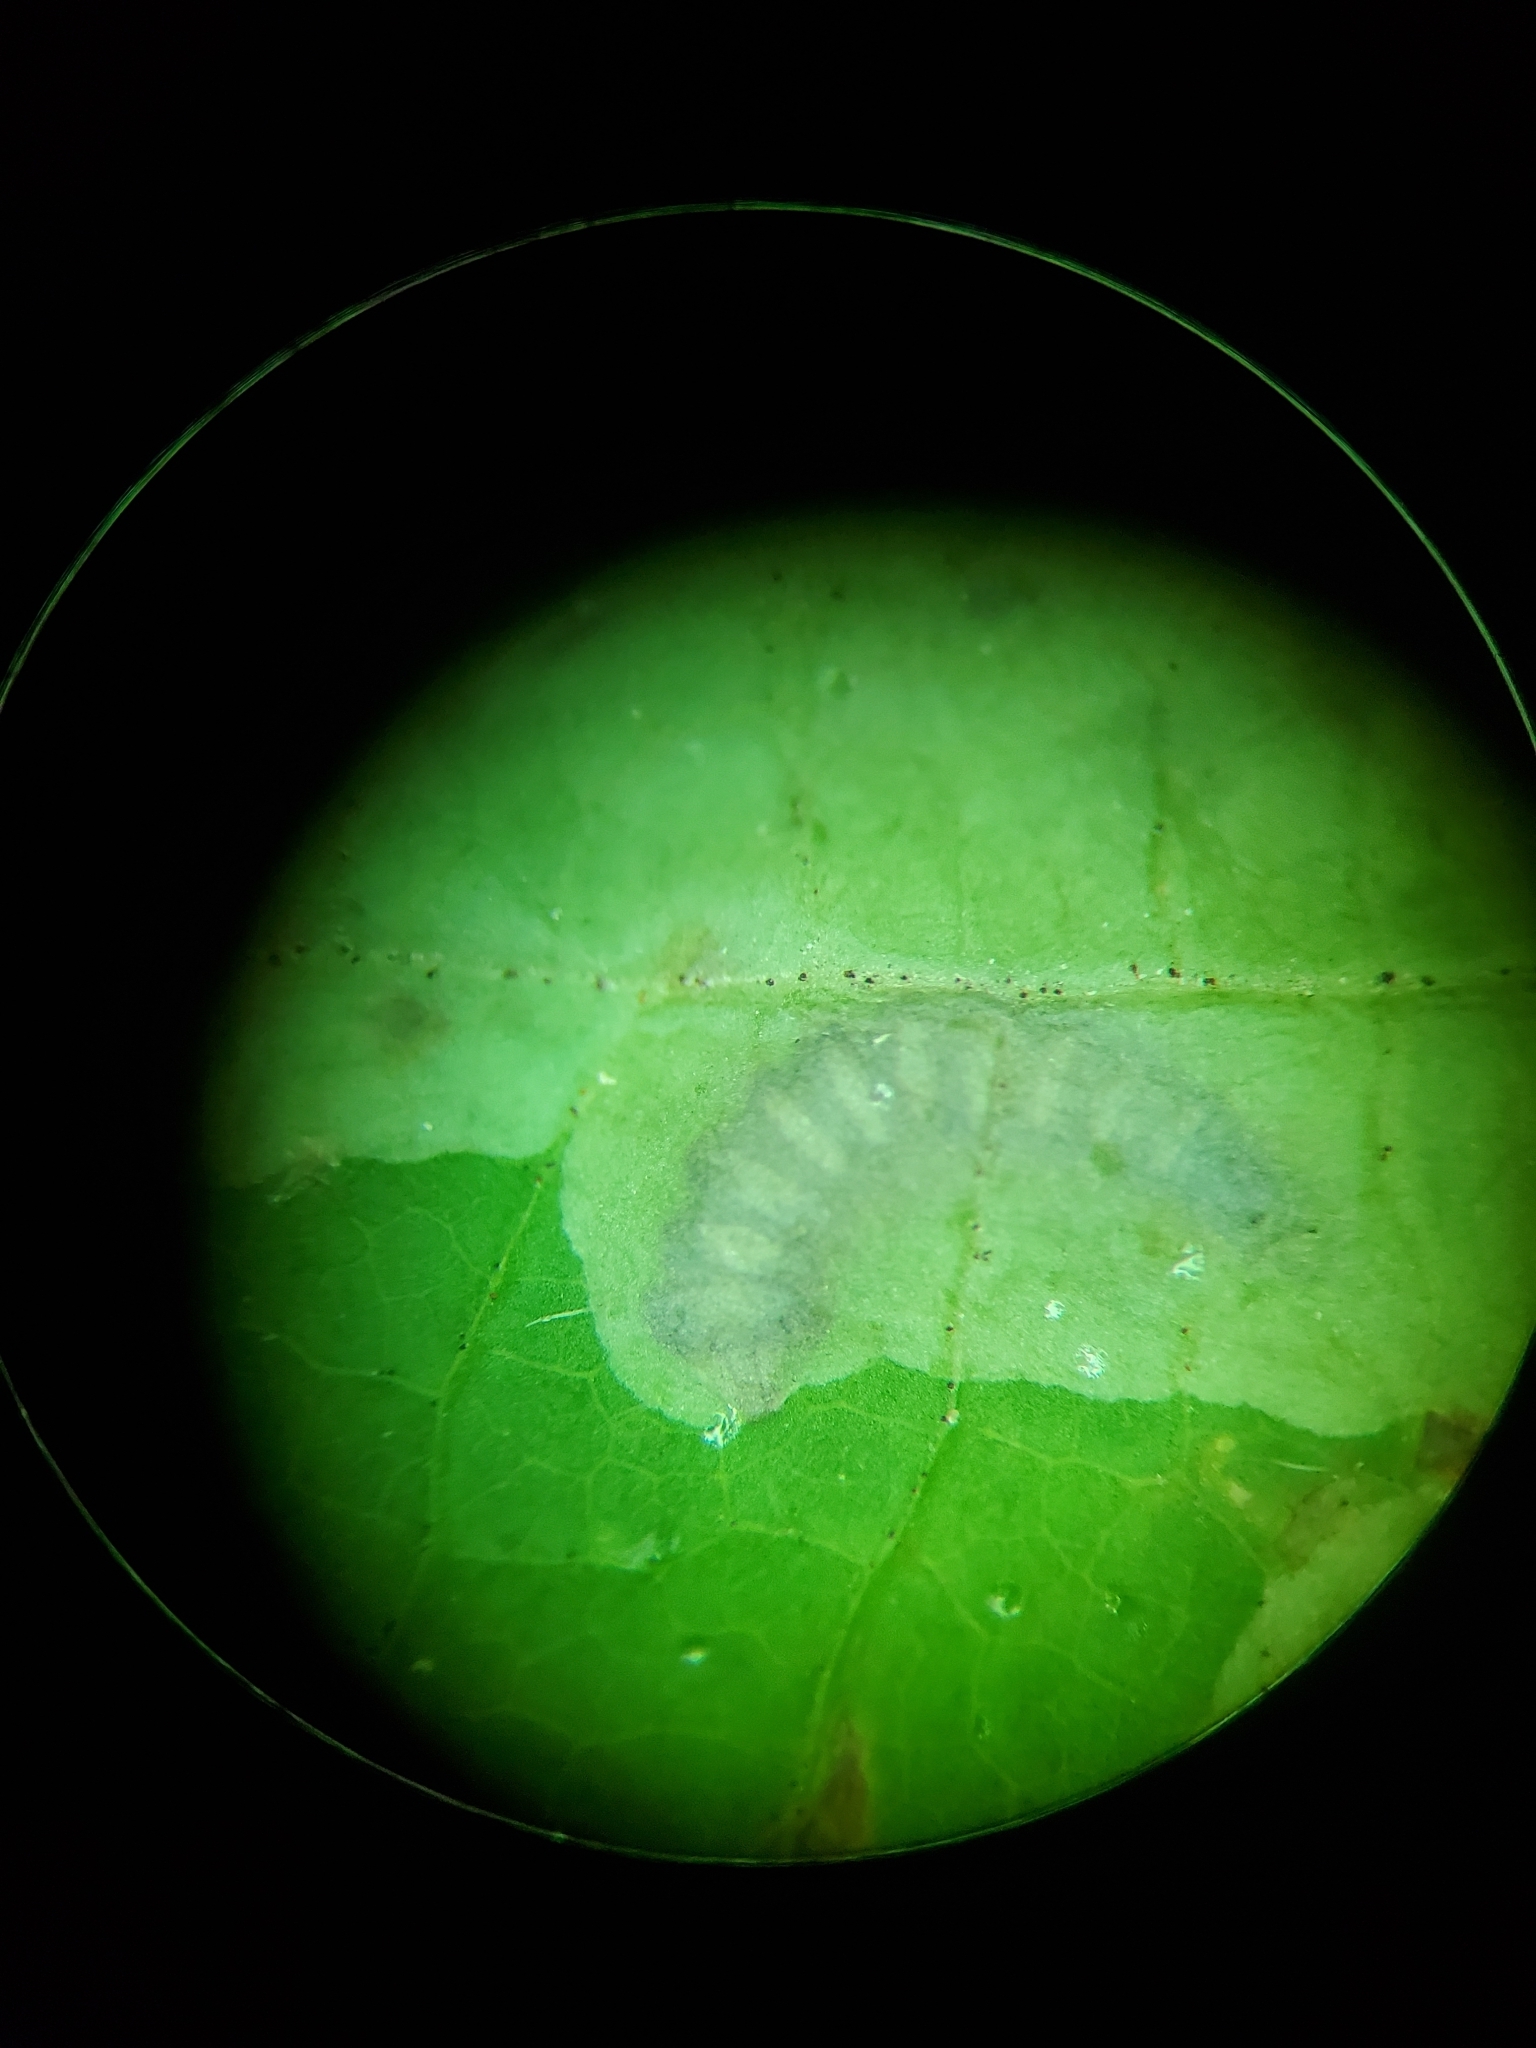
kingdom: Animalia
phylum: Arthropoda
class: Insecta
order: Lepidoptera
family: Gracillariidae
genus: Cameraria
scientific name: Cameraria aceriella
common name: Maple leafblotch miner
